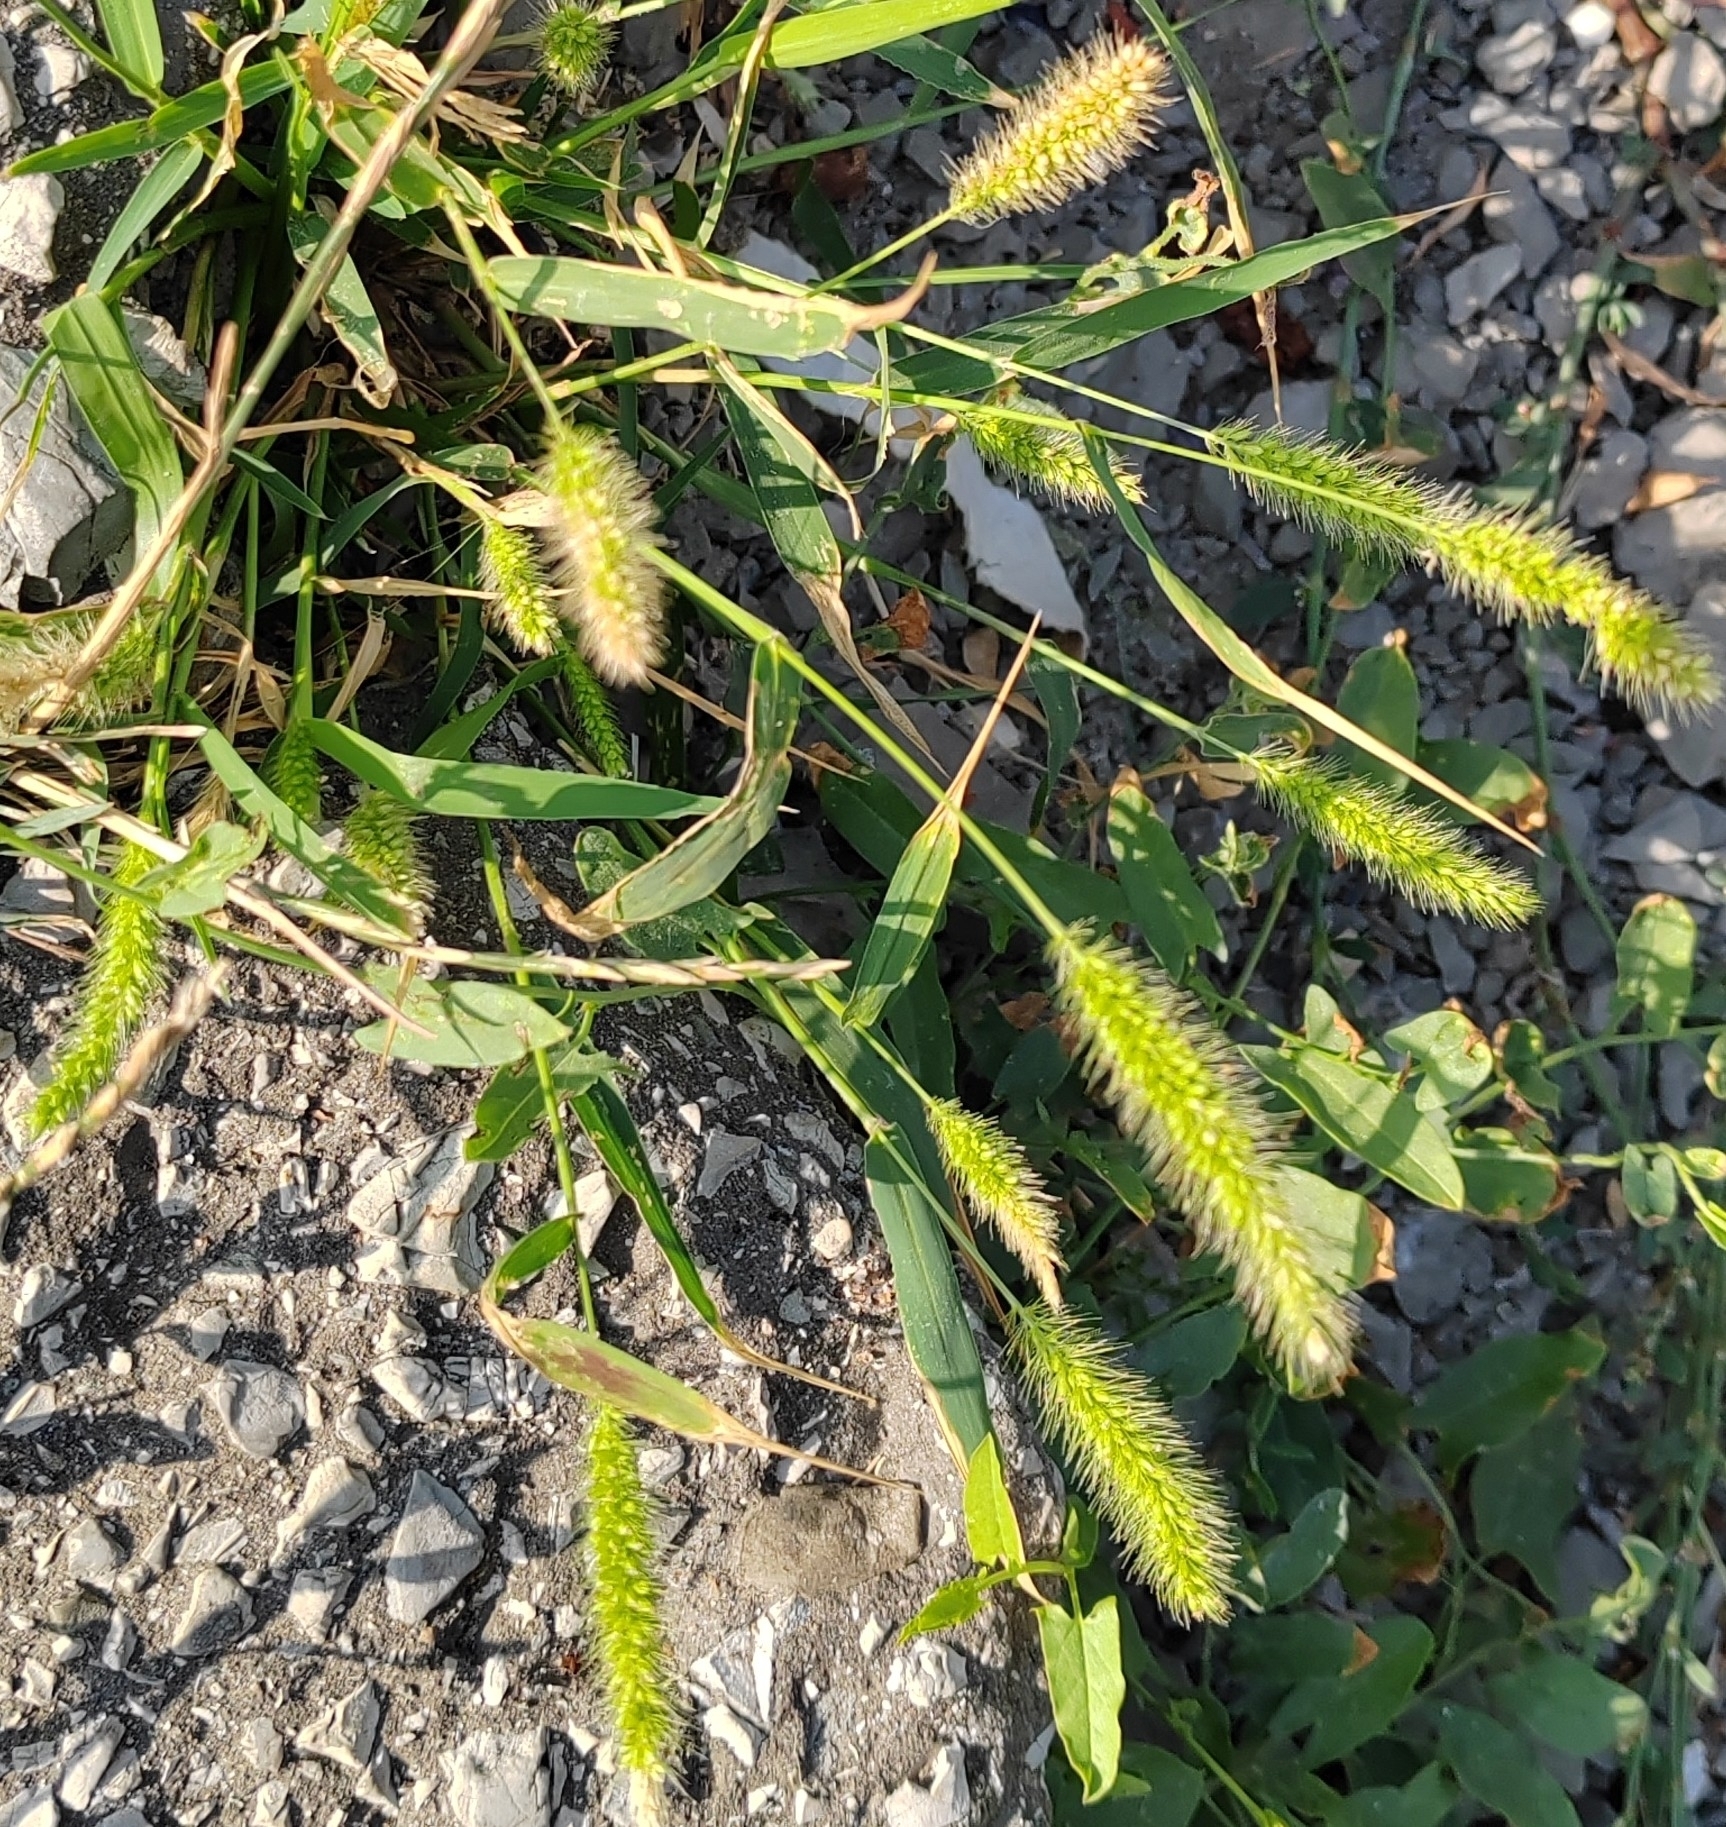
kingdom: Plantae
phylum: Tracheophyta
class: Liliopsida
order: Poales
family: Poaceae
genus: Setaria
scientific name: Setaria viridis
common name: Green bristlegrass
